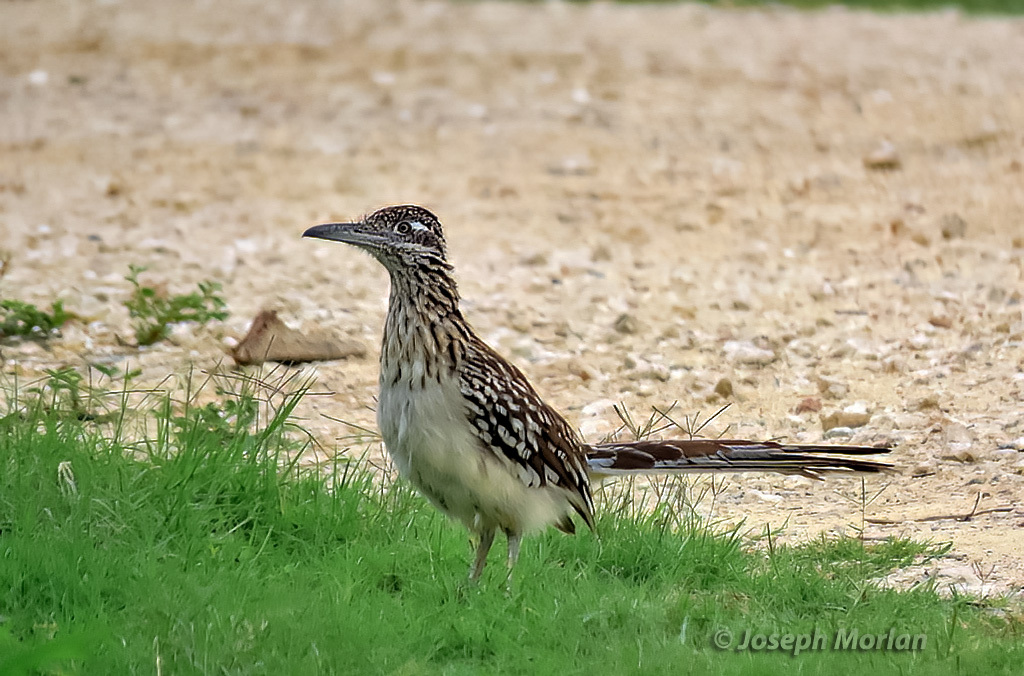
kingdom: Animalia
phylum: Chordata
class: Aves
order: Cuculiformes
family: Cuculidae
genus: Geococcyx
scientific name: Geococcyx californianus
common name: Greater roadrunner
